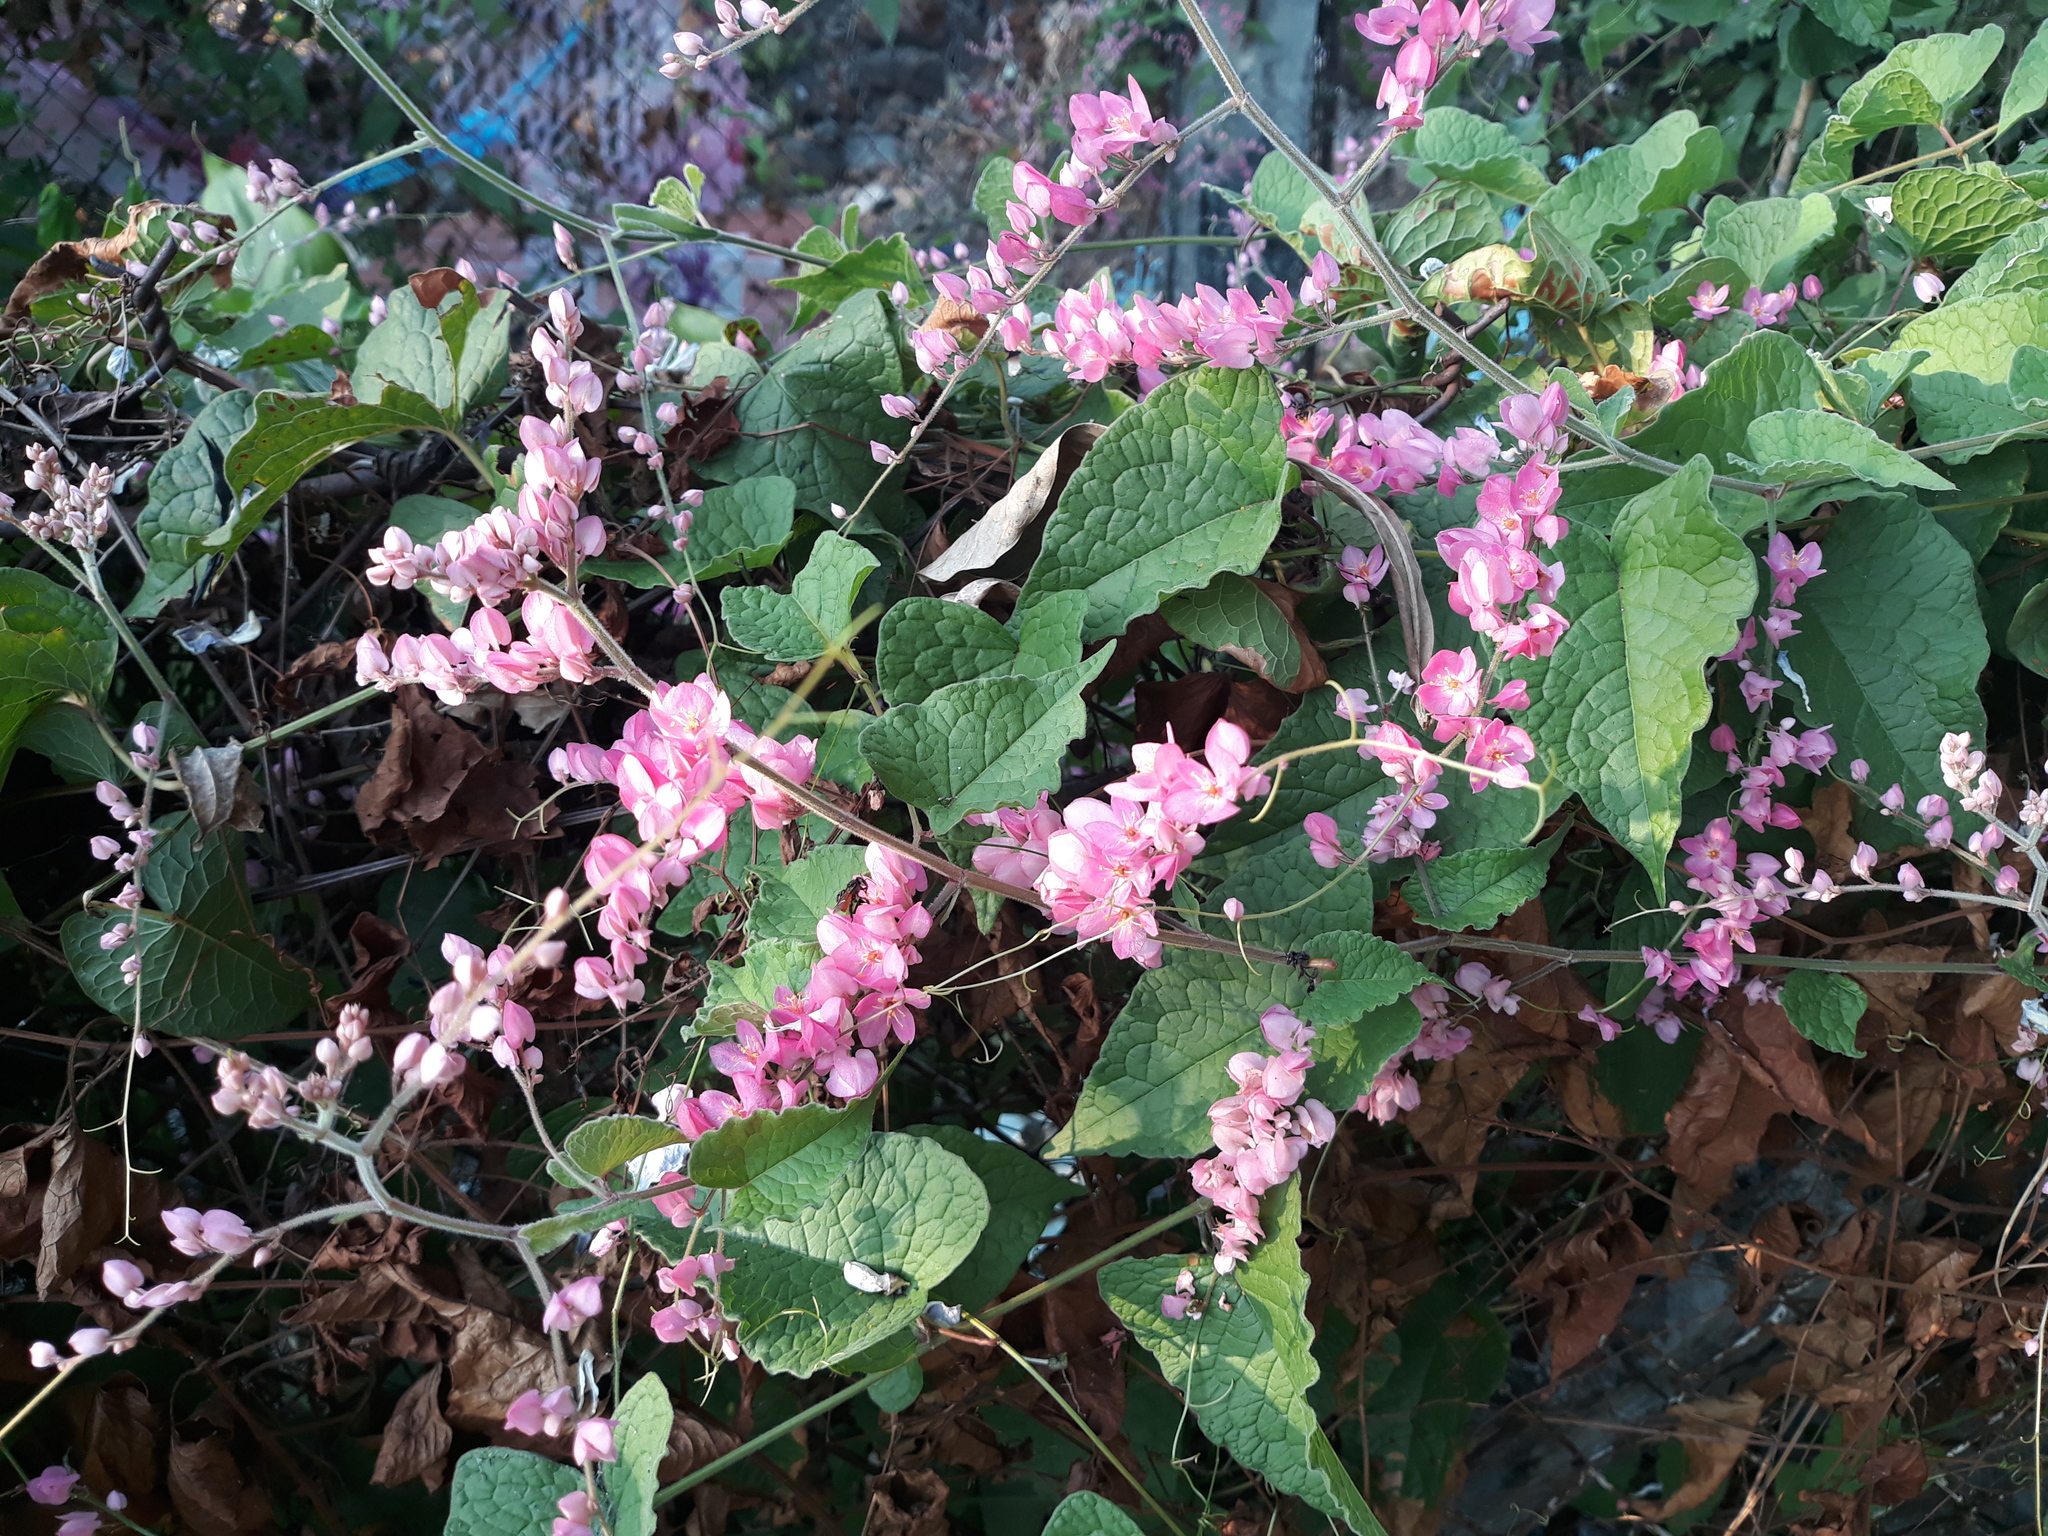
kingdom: Plantae
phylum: Tracheophyta
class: Magnoliopsida
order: Caryophyllales
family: Polygonaceae
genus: Antigonon
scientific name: Antigonon leptopus
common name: Coral vine
